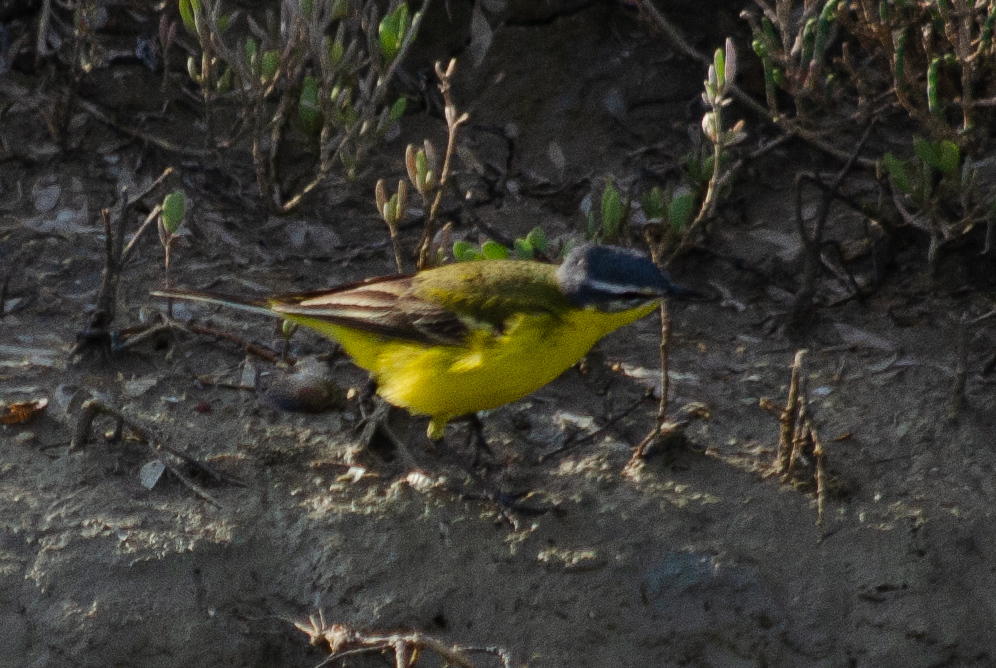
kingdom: Animalia
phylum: Chordata
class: Aves
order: Passeriformes
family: Motacillidae
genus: Motacilla
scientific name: Motacilla flava
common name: Western yellow wagtail
